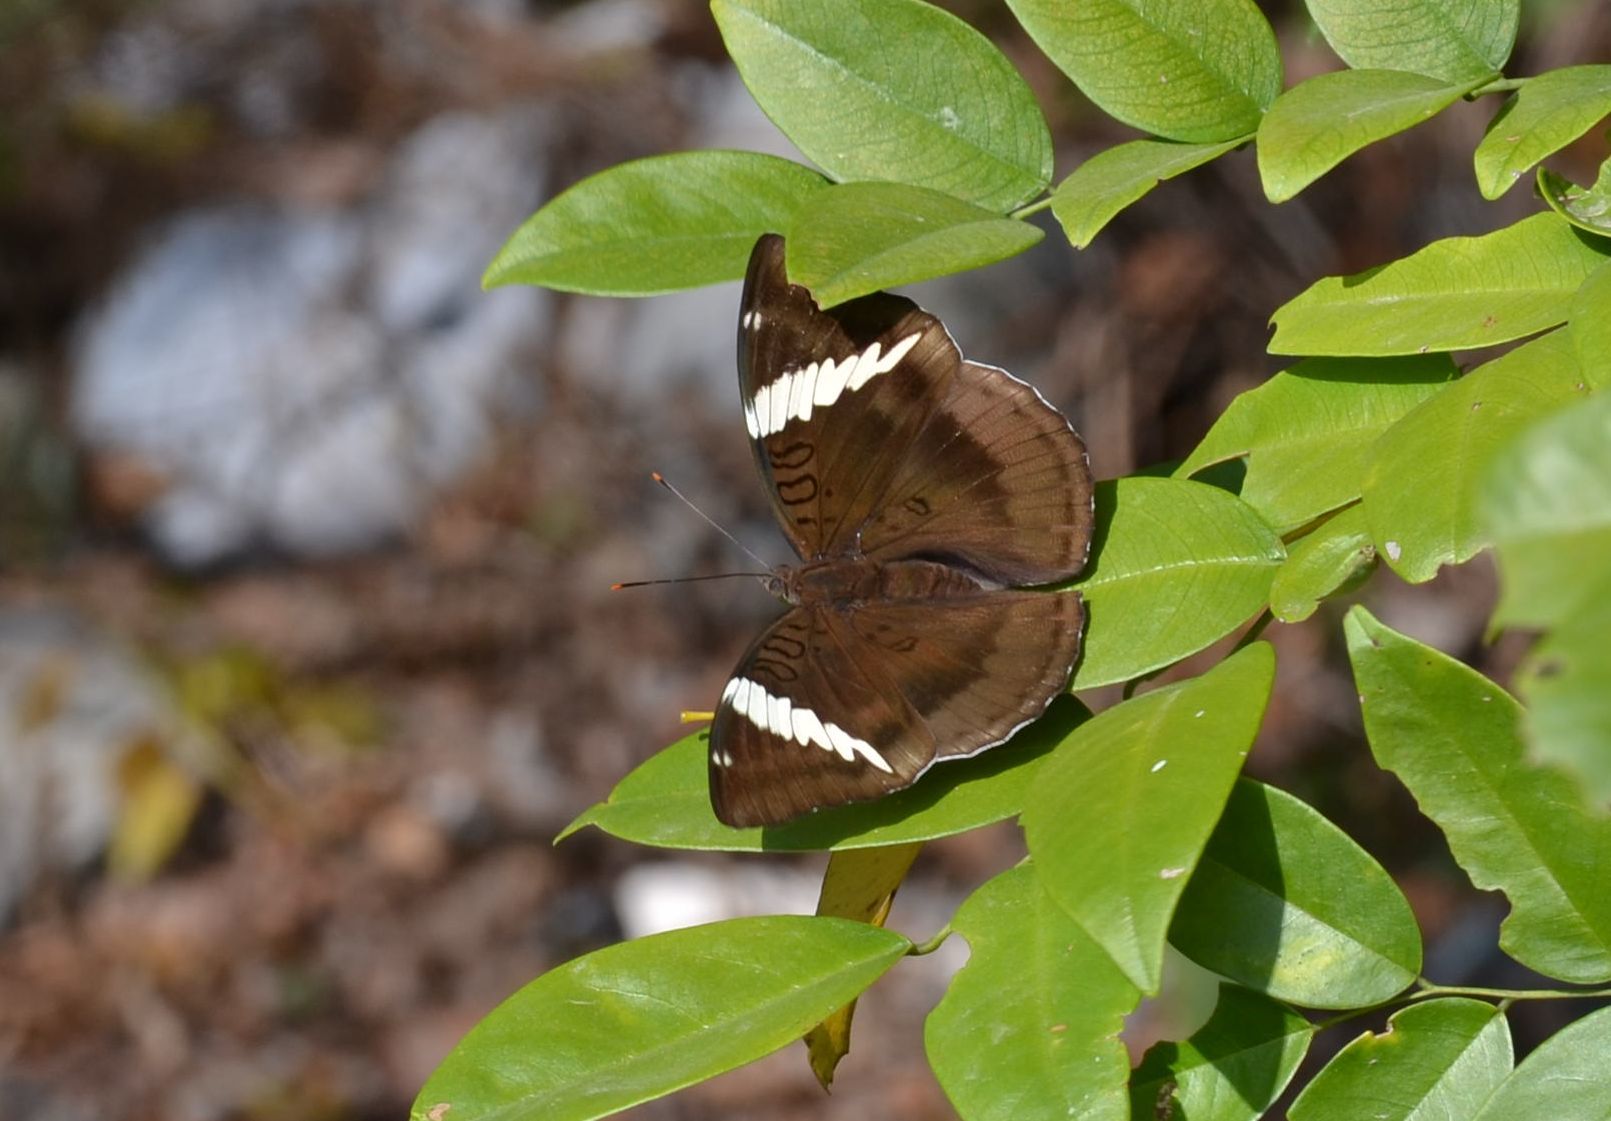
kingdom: Animalia
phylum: Arthropoda
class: Insecta
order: Lepidoptera
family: Nymphalidae
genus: Euthalia
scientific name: Euthalia phemius
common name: White-edged blue baron
